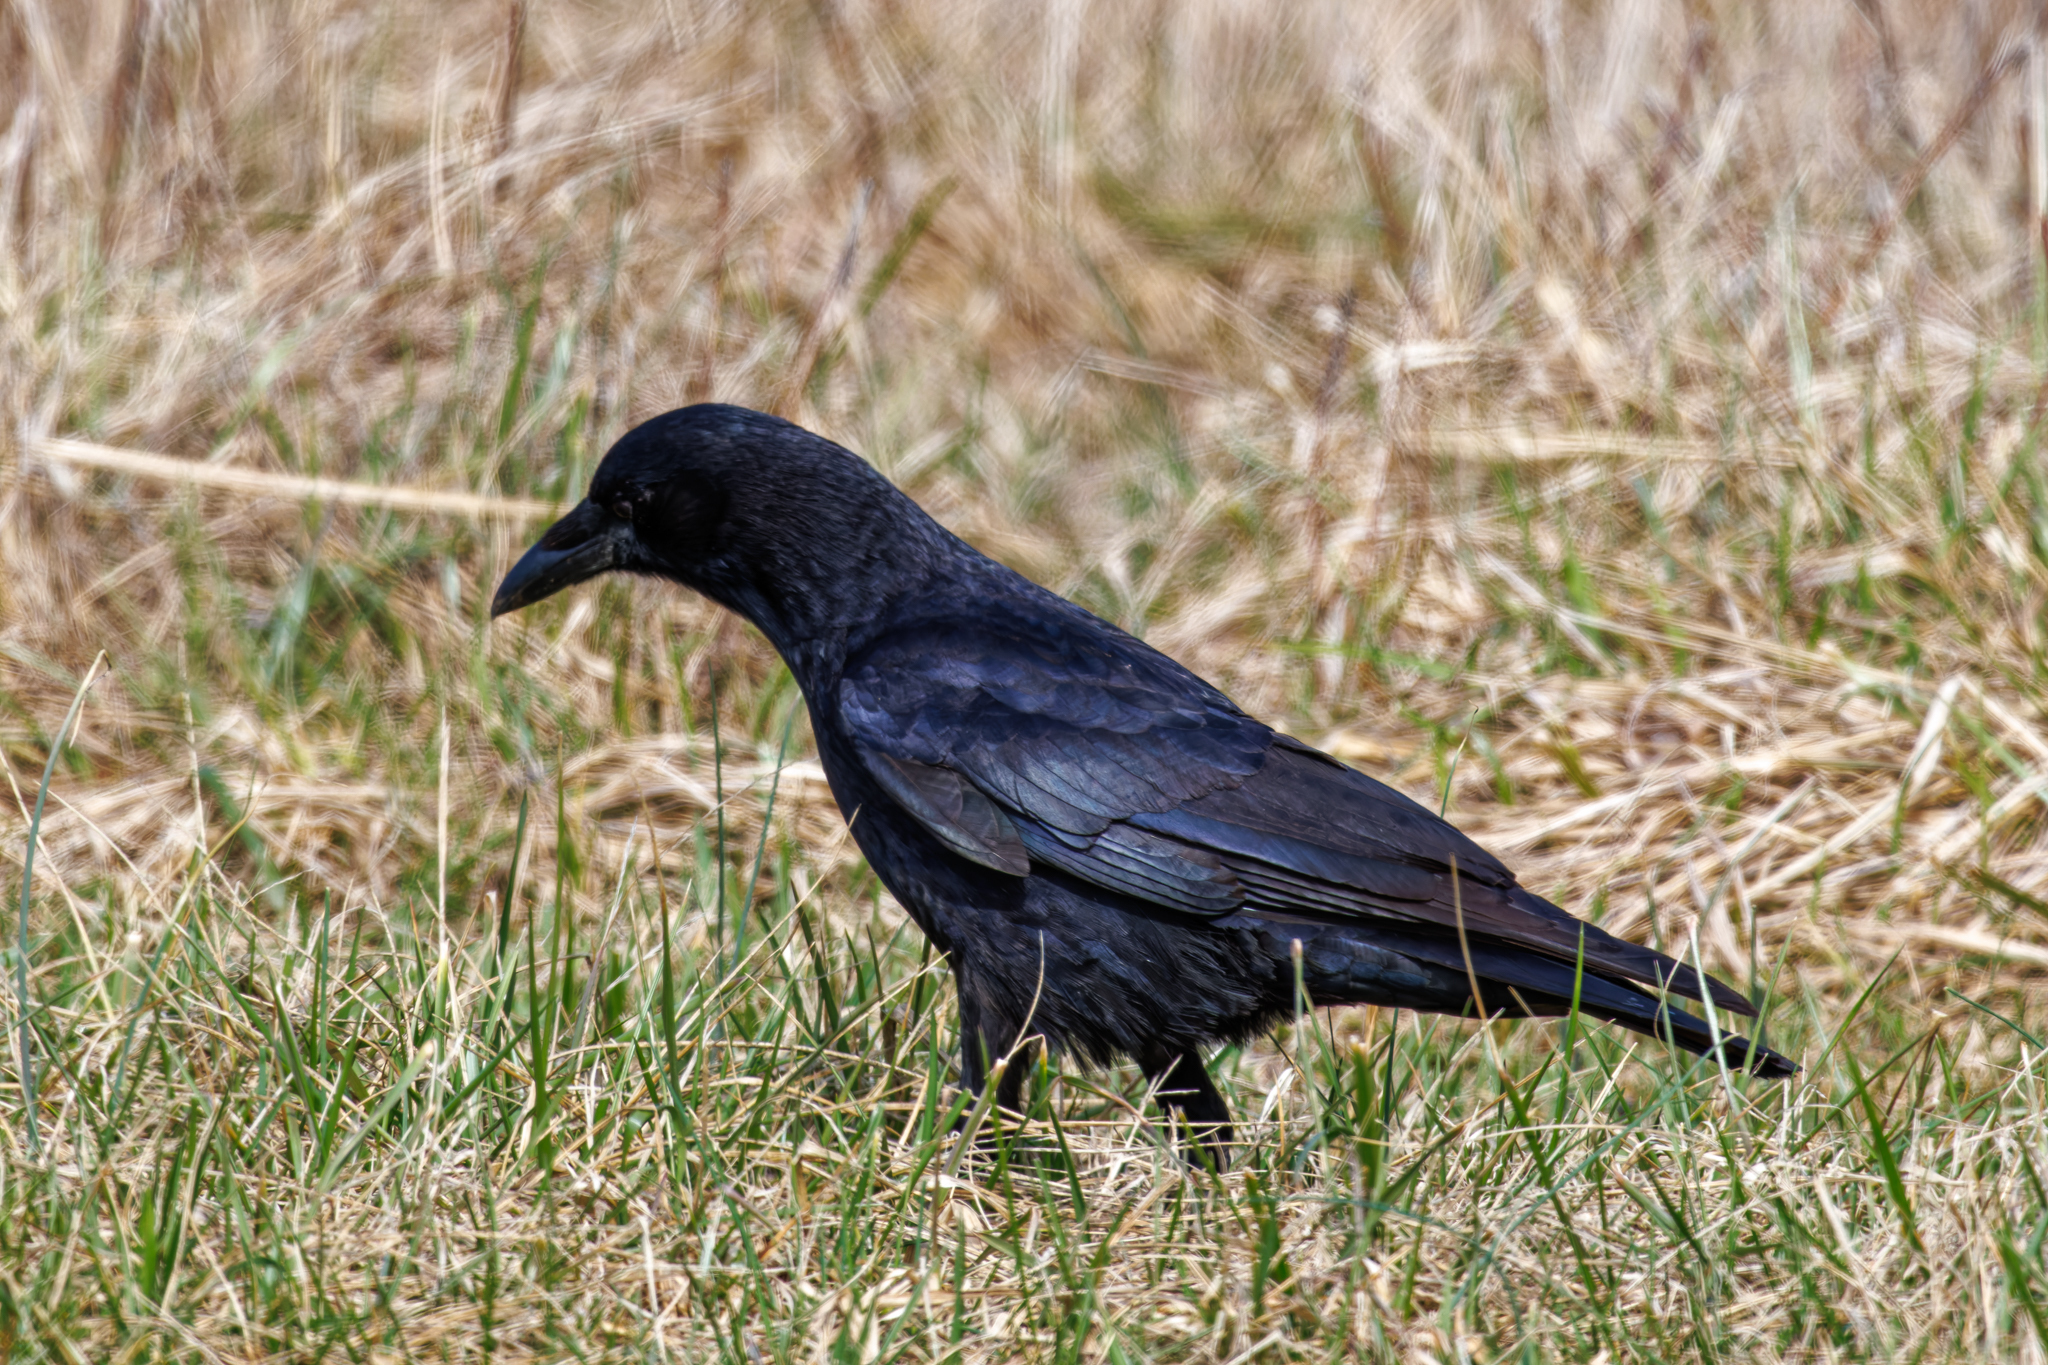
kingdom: Animalia
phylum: Chordata
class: Aves
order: Passeriformes
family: Corvidae
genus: Corvus
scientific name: Corvus brachyrhynchos
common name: American crow
